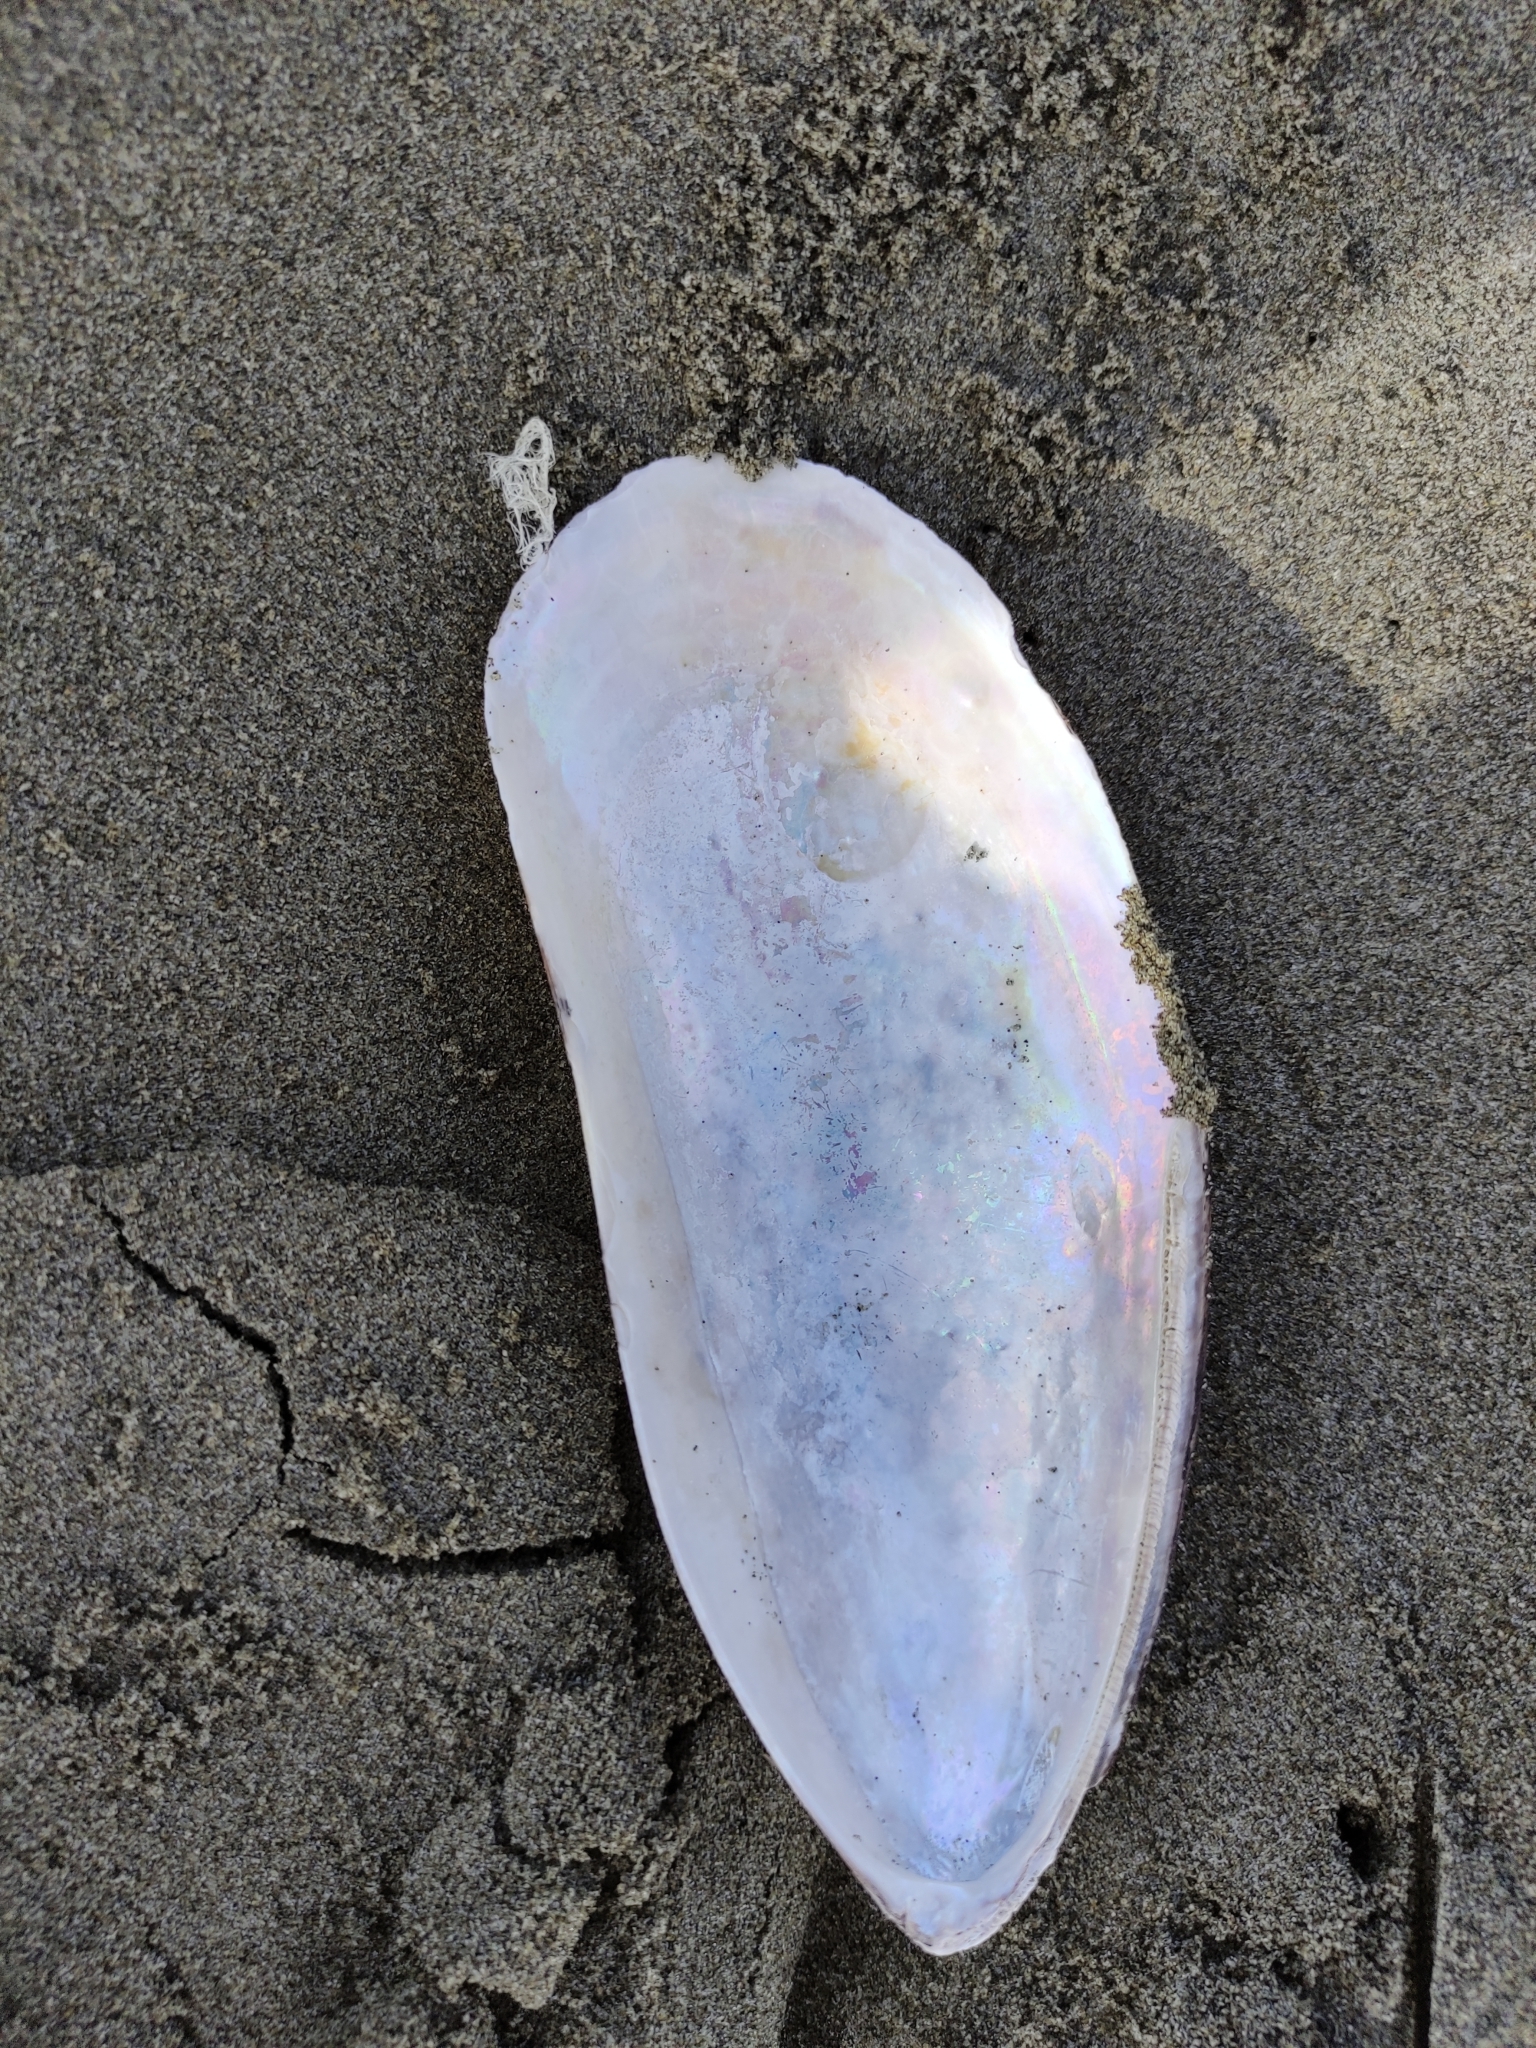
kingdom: Animalia
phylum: Mollusca
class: Bivalvia
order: Mytilida
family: Mytilidae
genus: Perna
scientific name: Perna canaliculus
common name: New zealand greenshelltm
